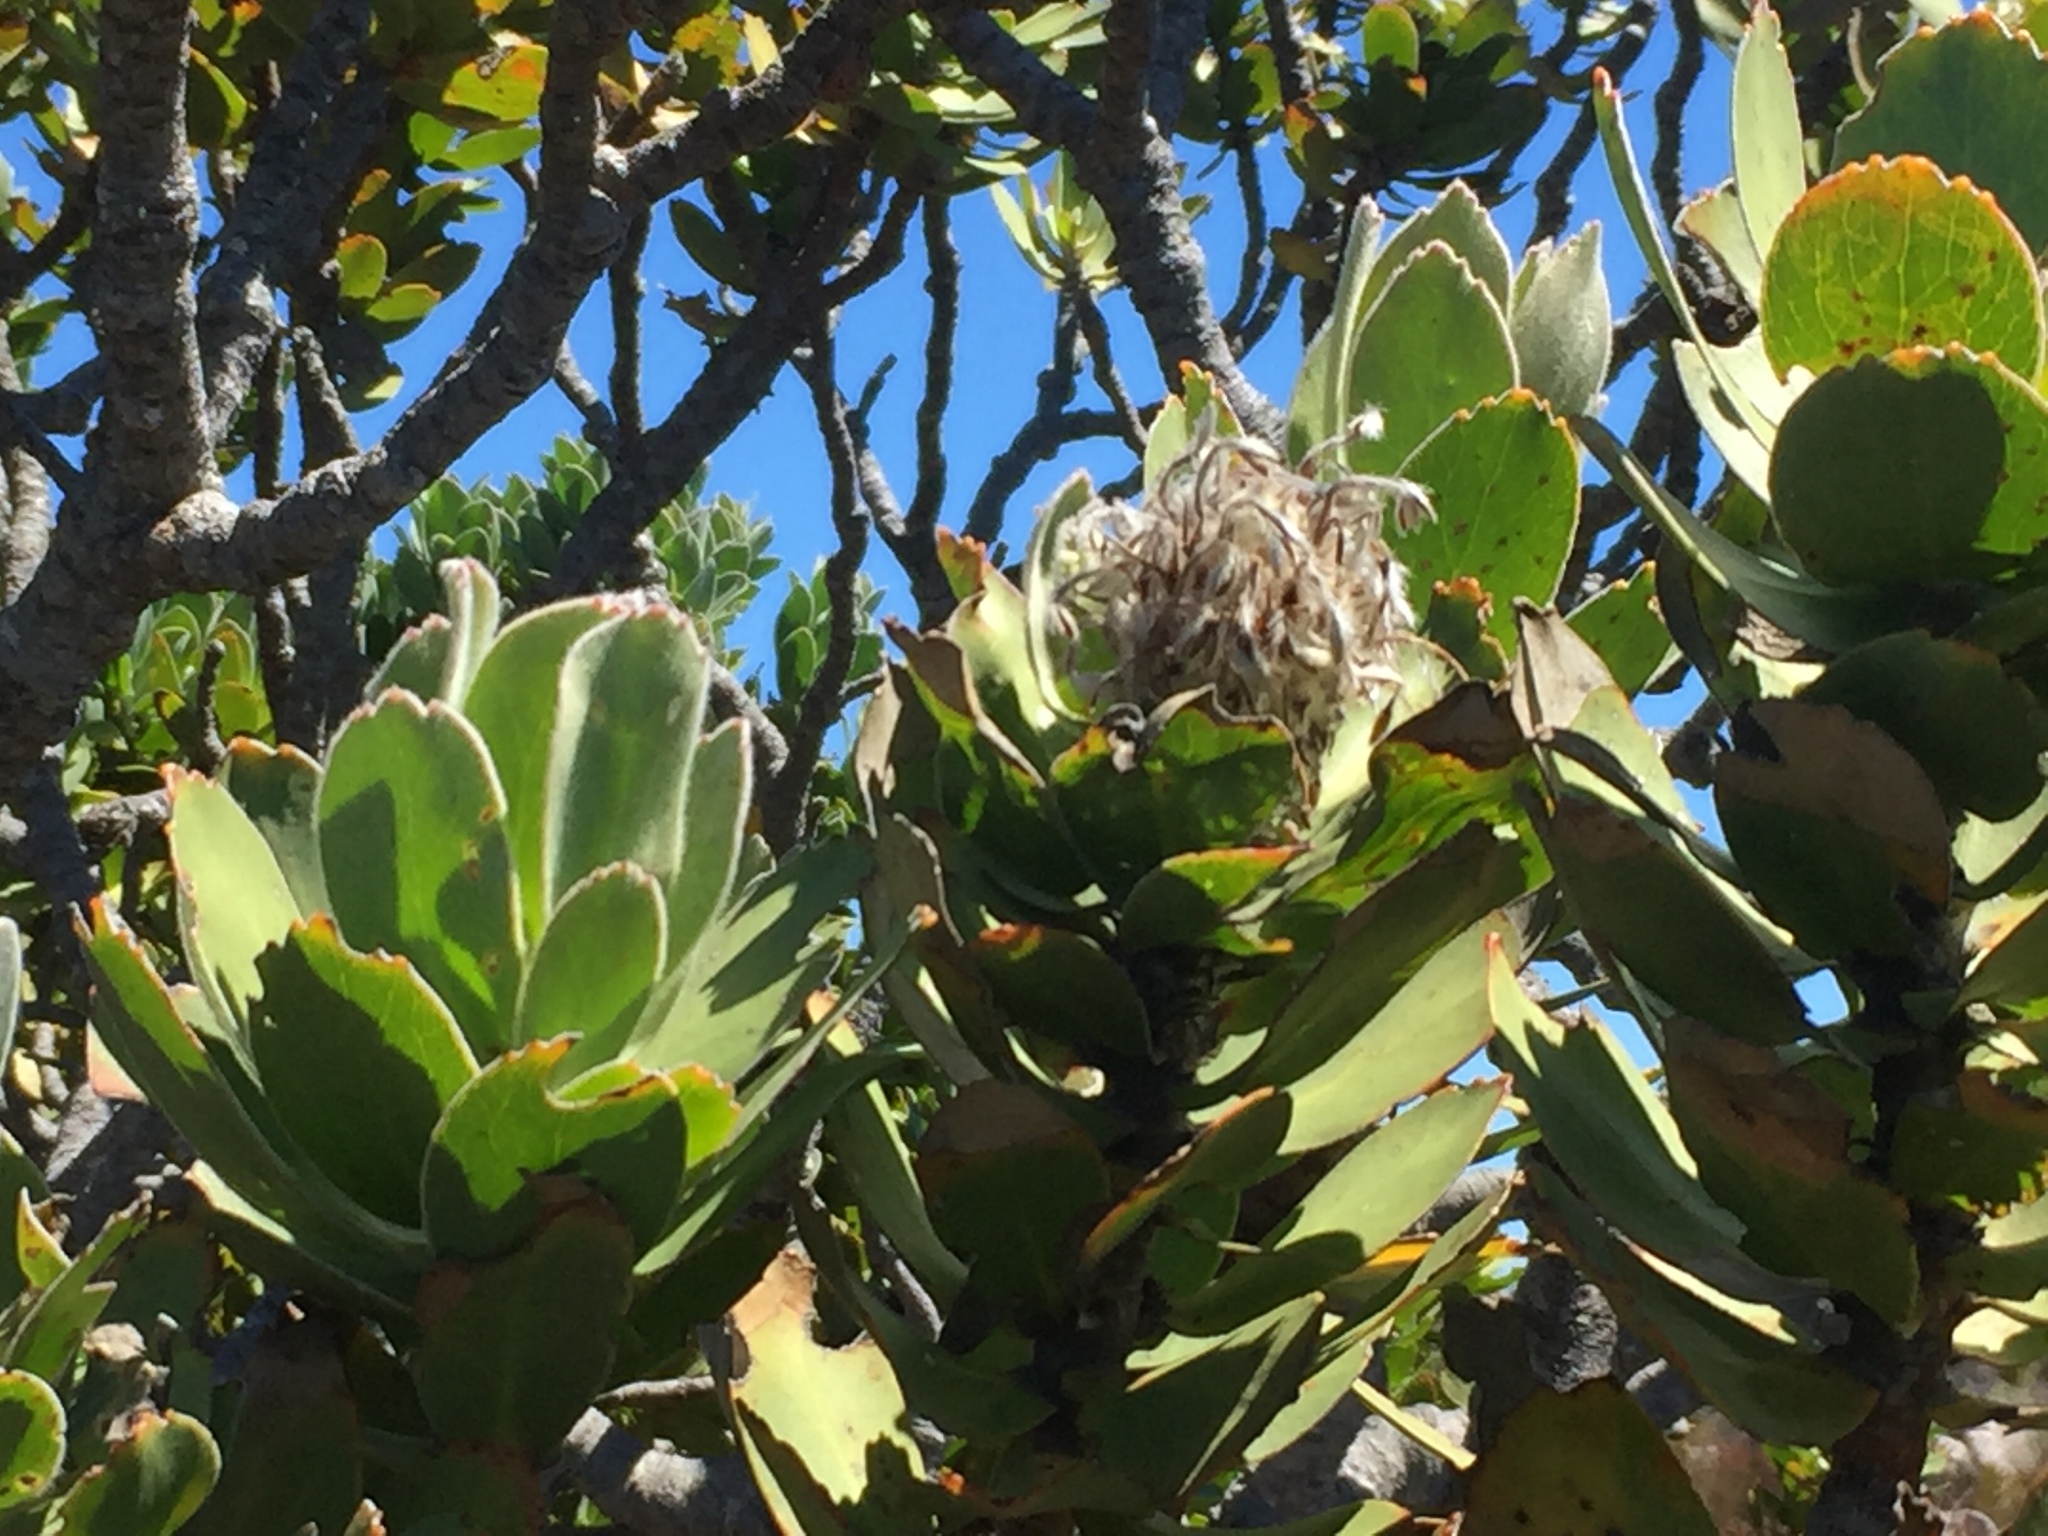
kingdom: Plantae
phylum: Tracheophyta
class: Magnoliopsida
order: Proteales
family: Proteaceae
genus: Leucospermum
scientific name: Leucospermum conocarpodendron
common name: Tree pincushion
